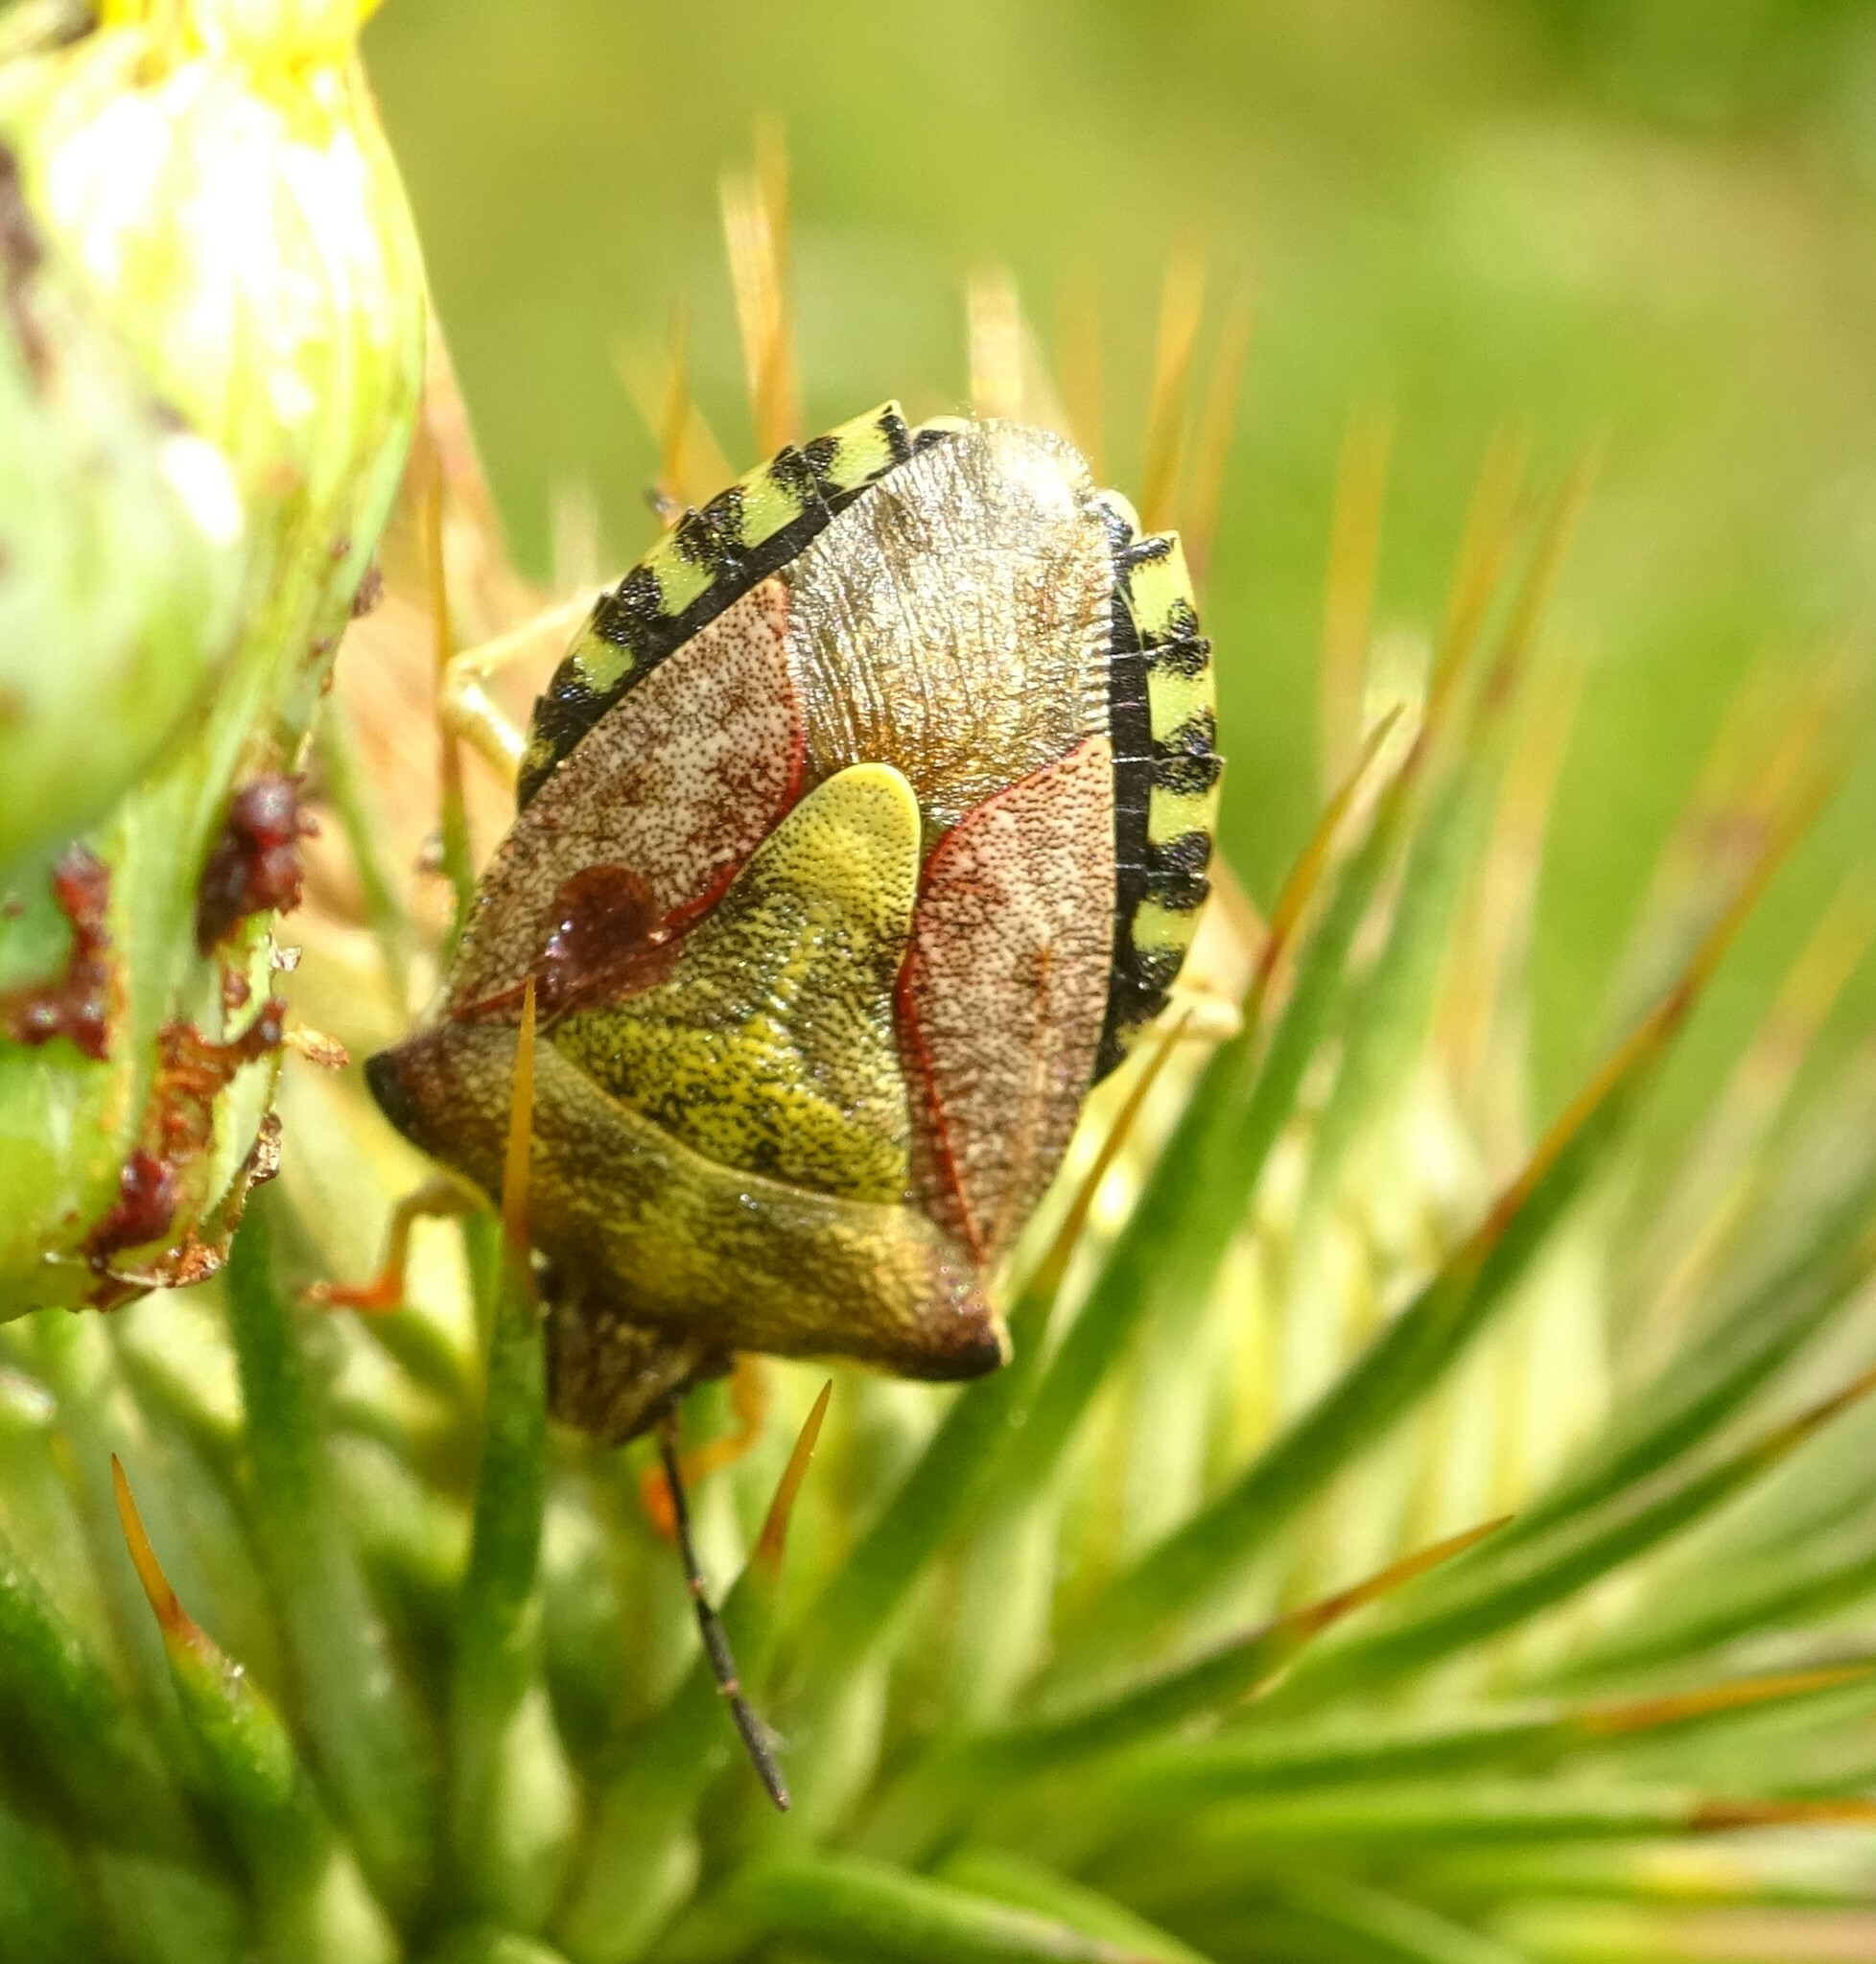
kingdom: Animalia
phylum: Arthropoda
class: Insecta
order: Hemiptera
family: Pentatomidae
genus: Carpocoris
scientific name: Carpocoris purpureipennis
